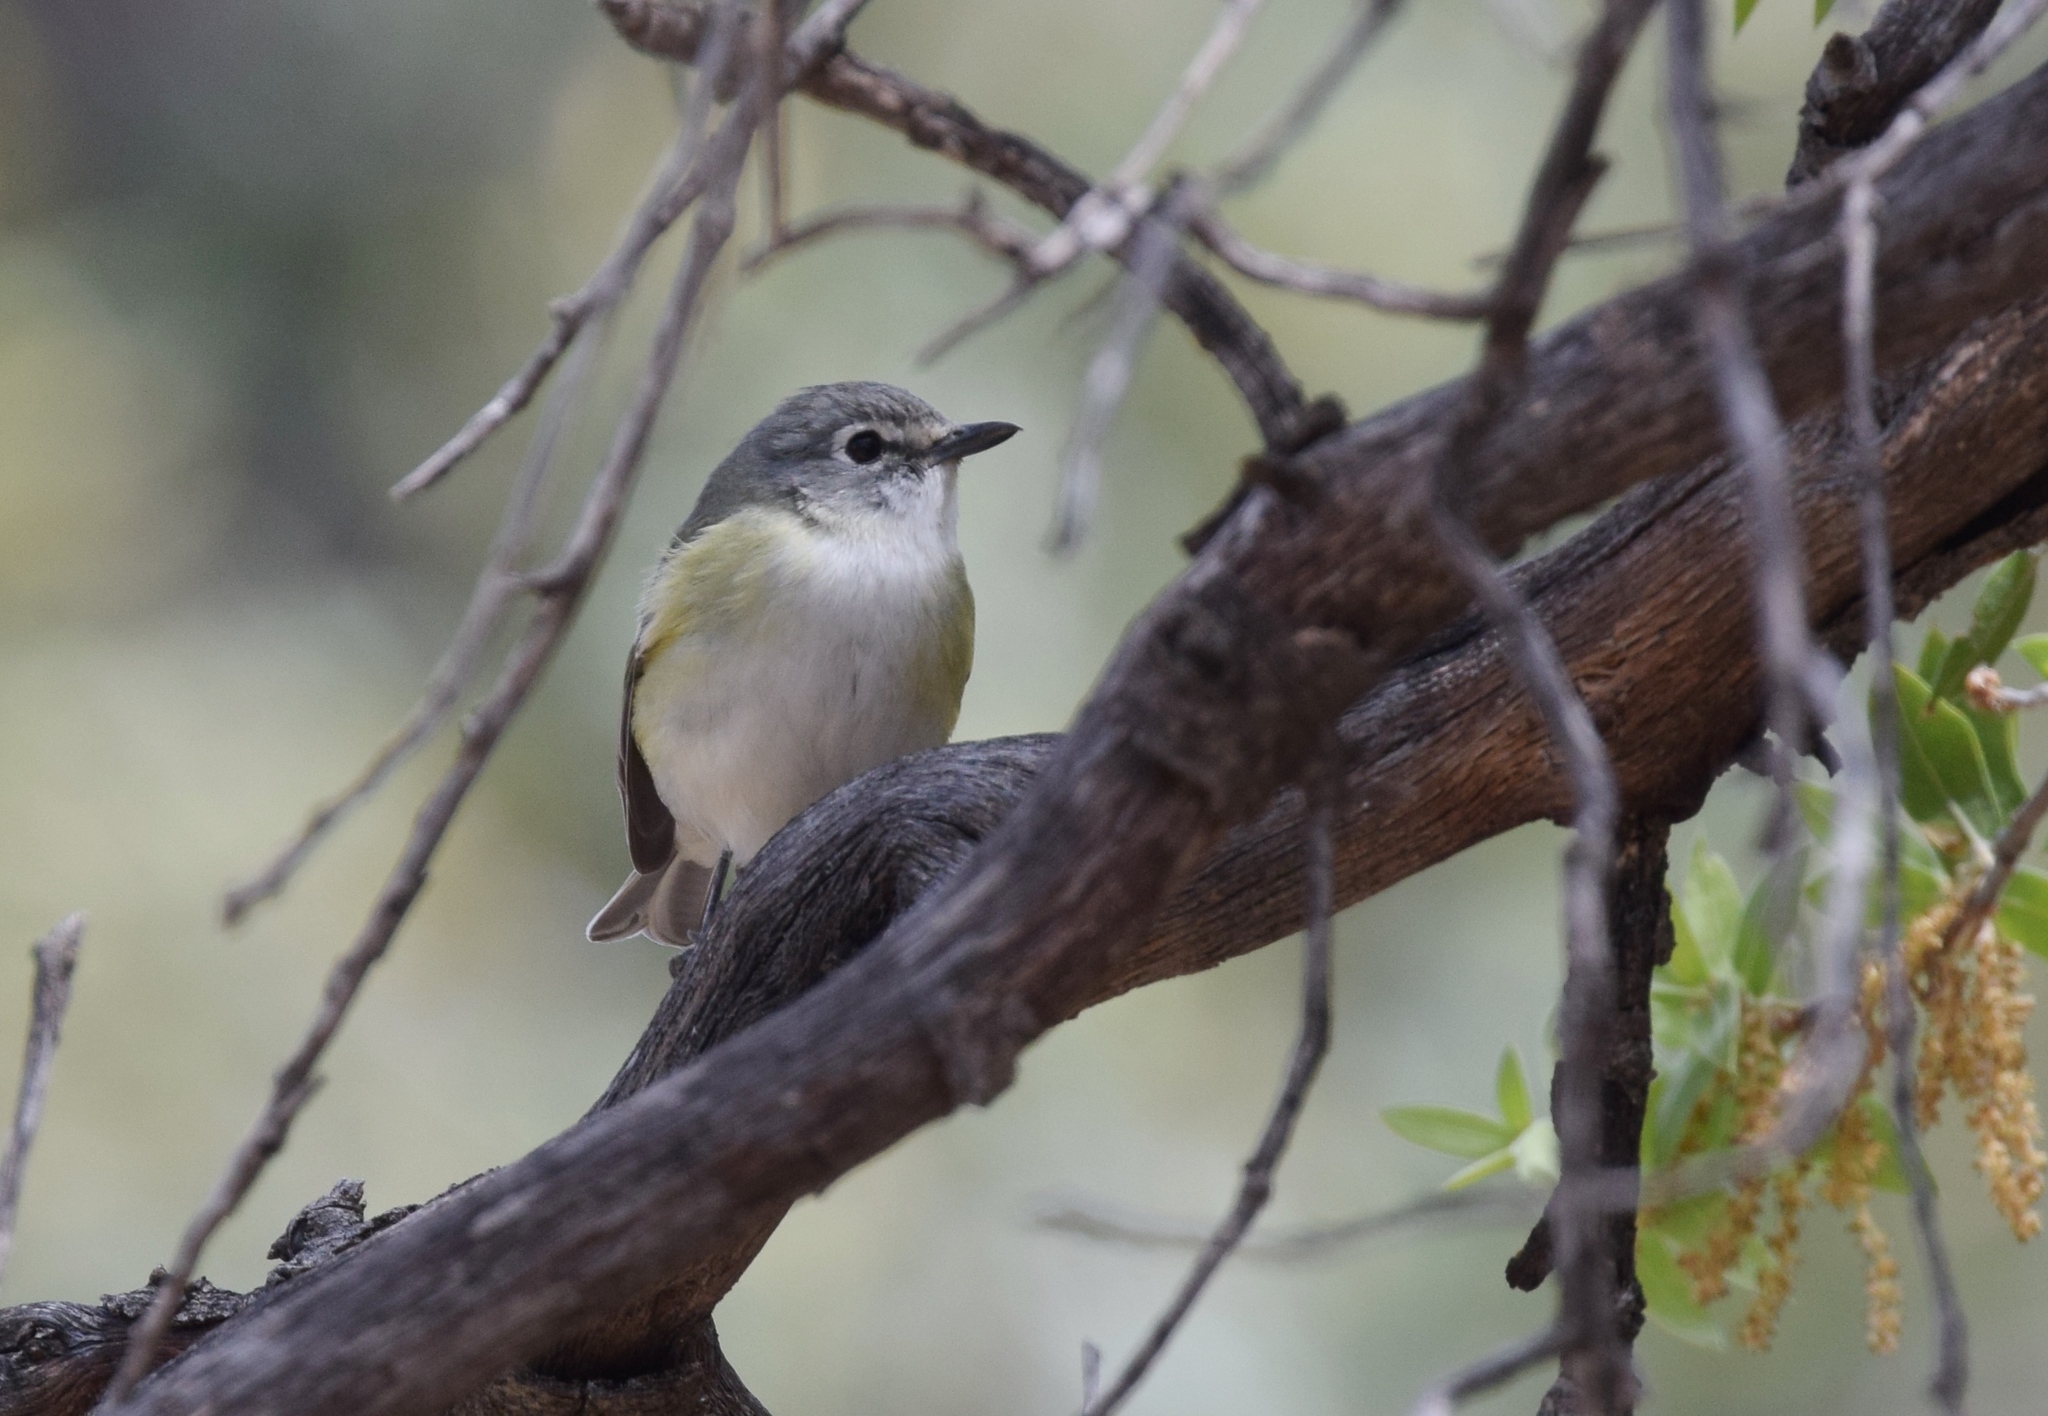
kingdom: Animalia
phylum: Chordata
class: Aves
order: Passeriformes
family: Vireonidae
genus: Vireo
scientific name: Vireo cassinii
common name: Cassin's vireo
